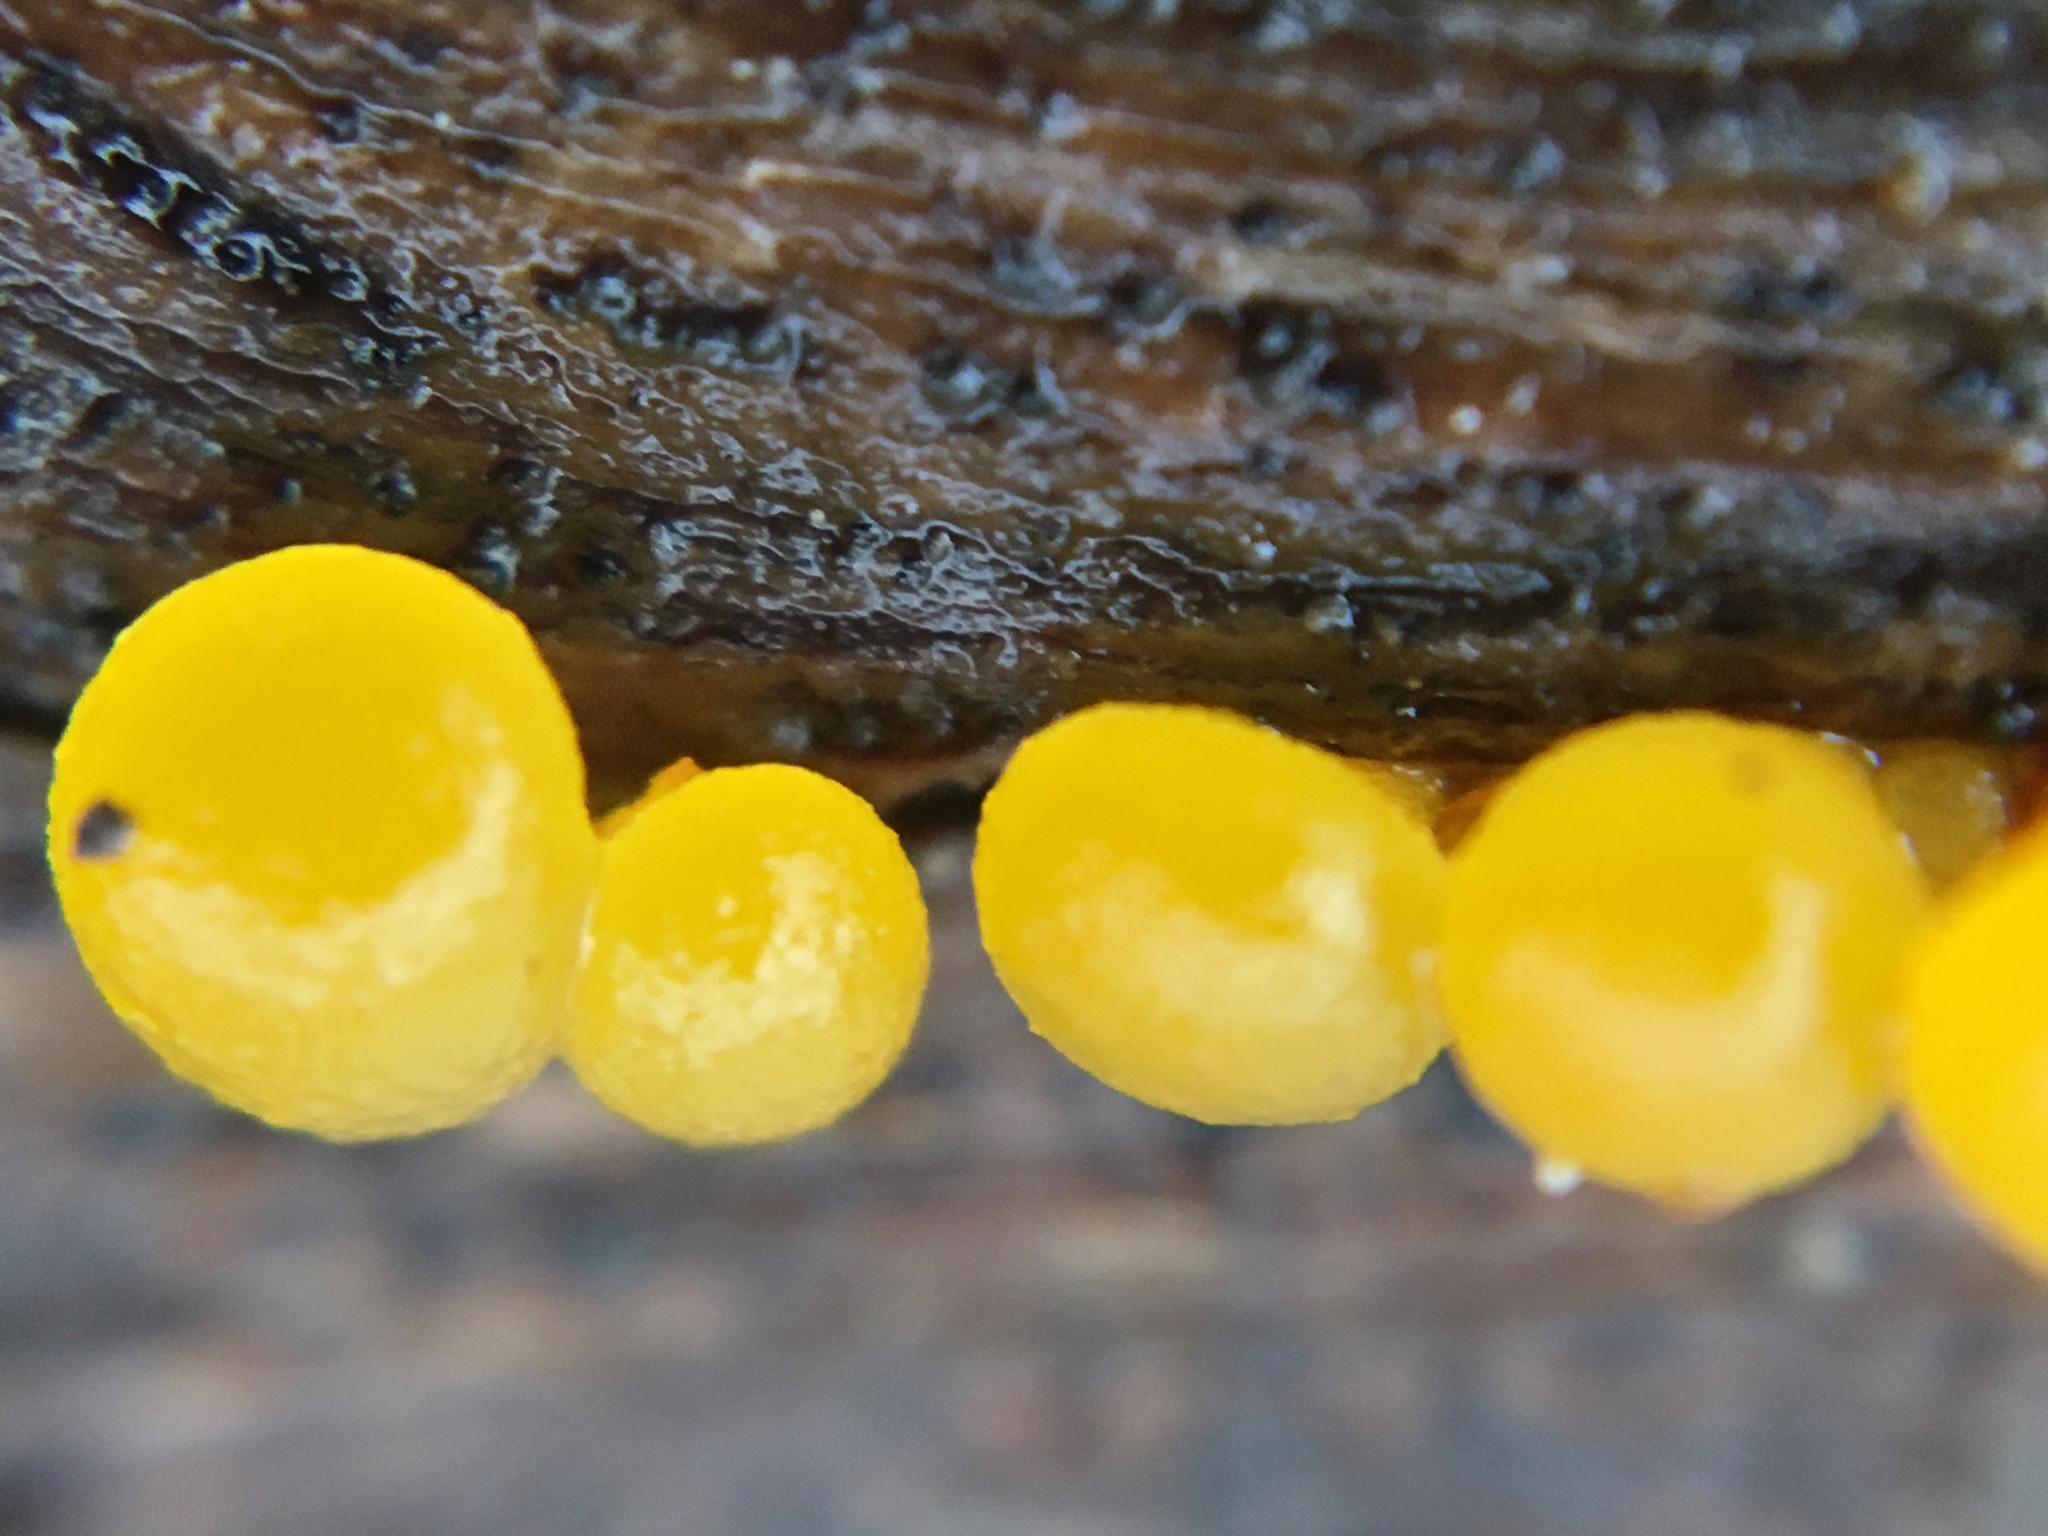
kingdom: Fungi
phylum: Basidiomycota
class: Dacrymycetes
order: Dacrymycetales
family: Dacrymycetaceae
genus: Dacrymyces
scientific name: Dacrymyces capitatus
